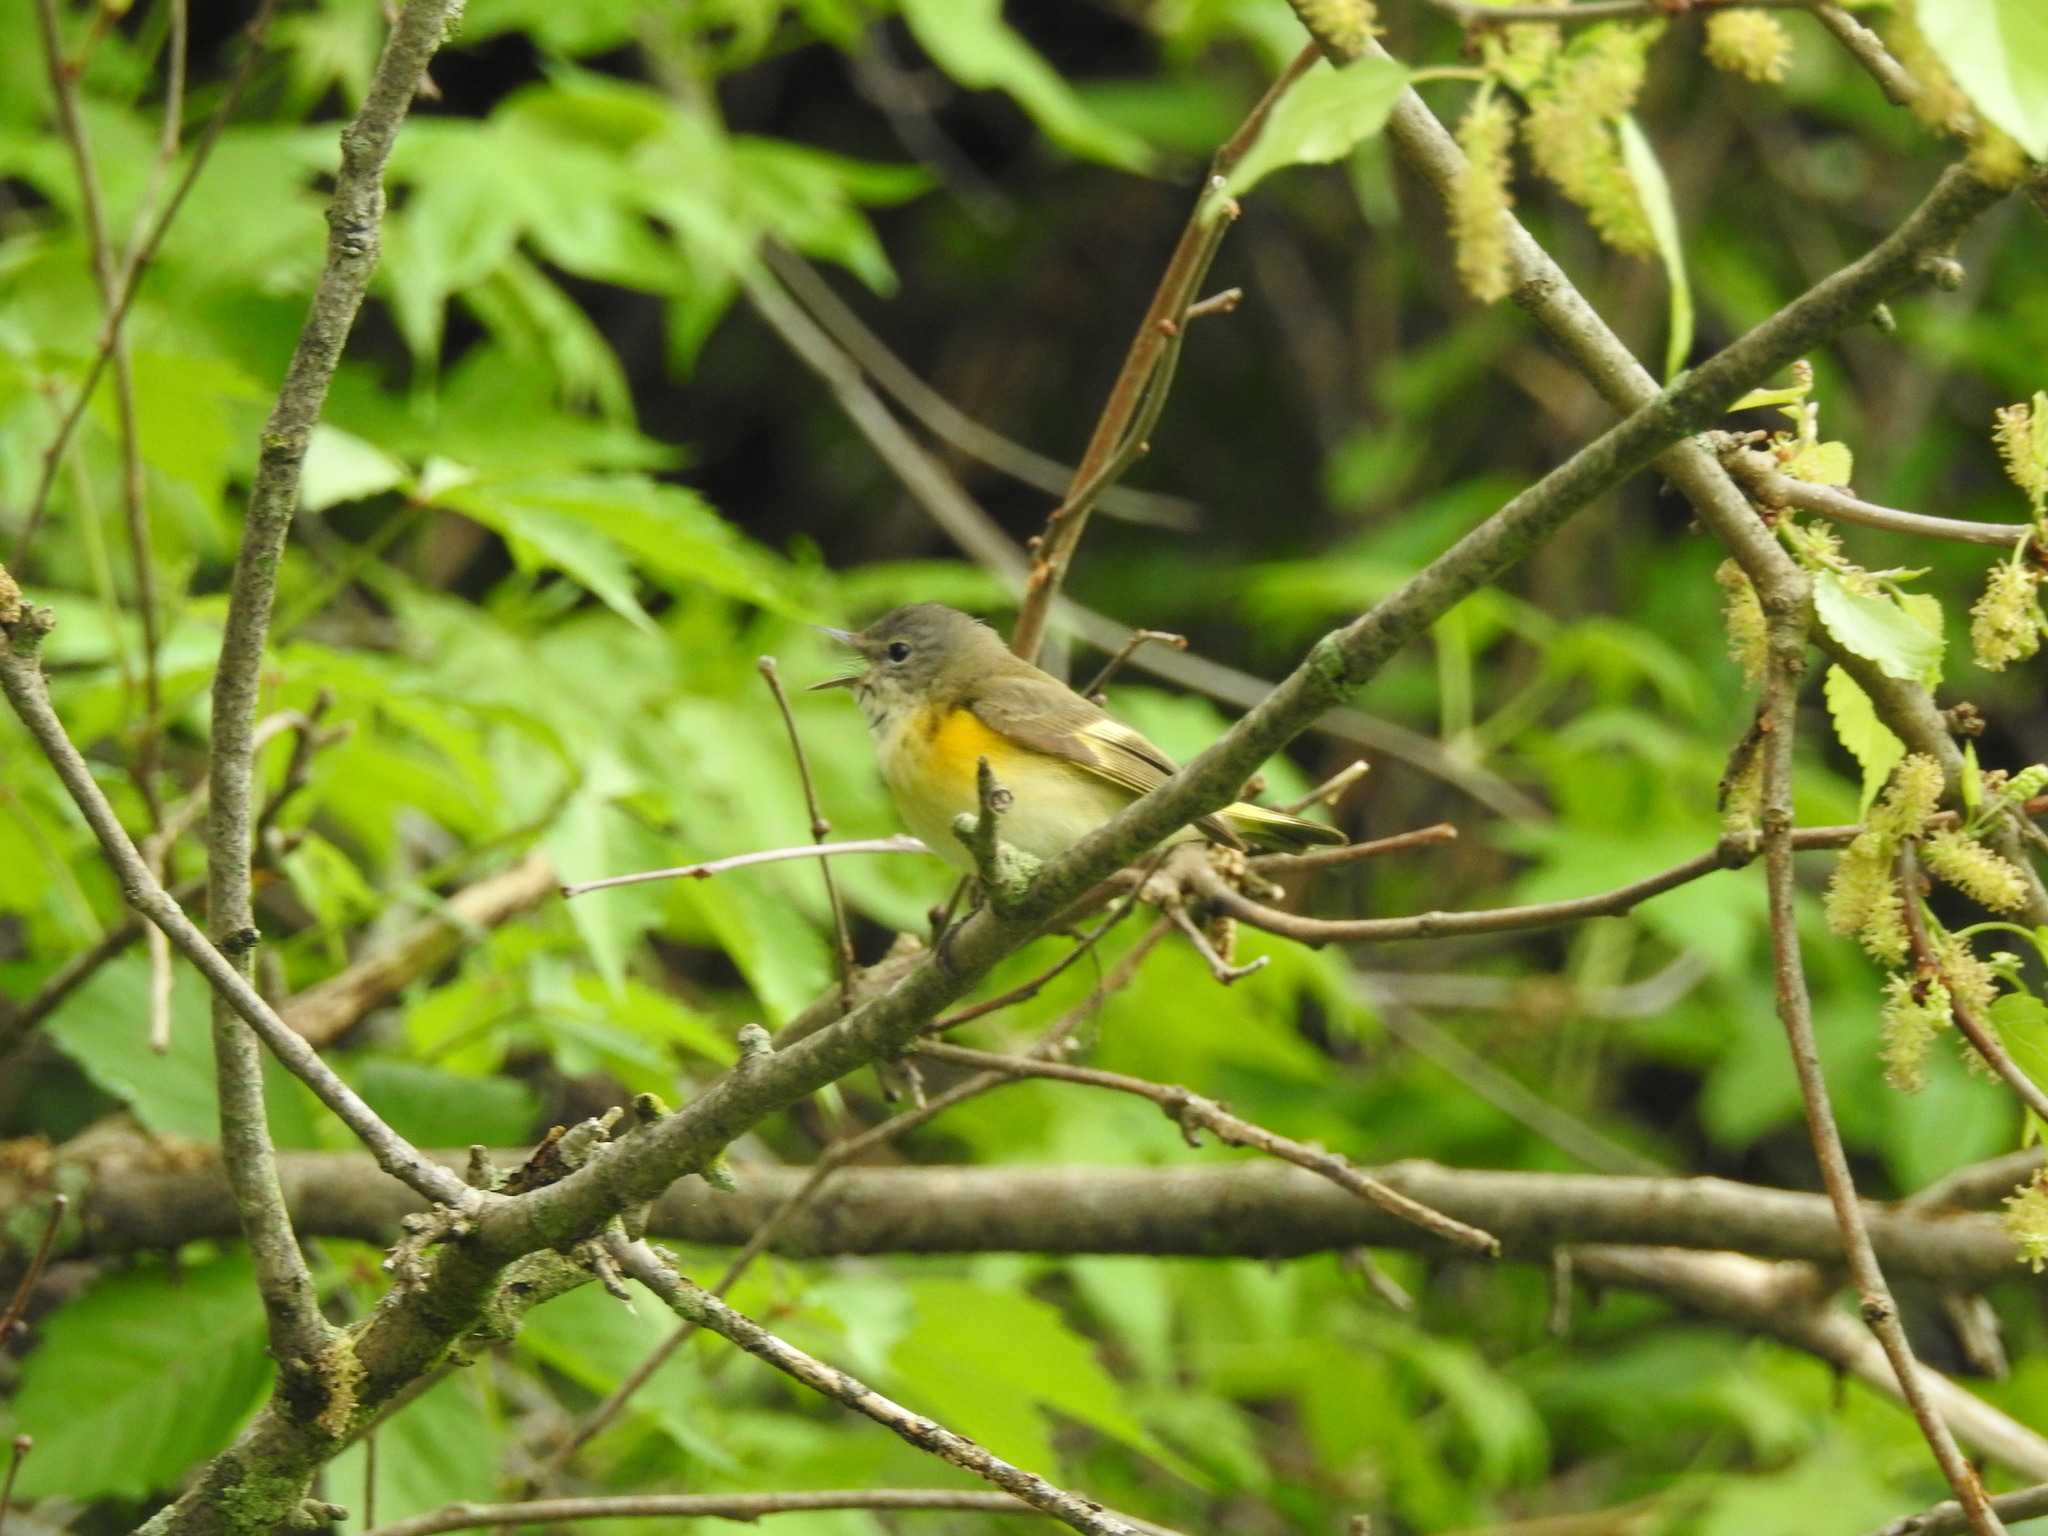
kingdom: Animalia
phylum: Chordata
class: Aves
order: Passeriformes
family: Parulidae
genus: Setophaga
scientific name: Setophaga ruticilla
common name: American redstart
